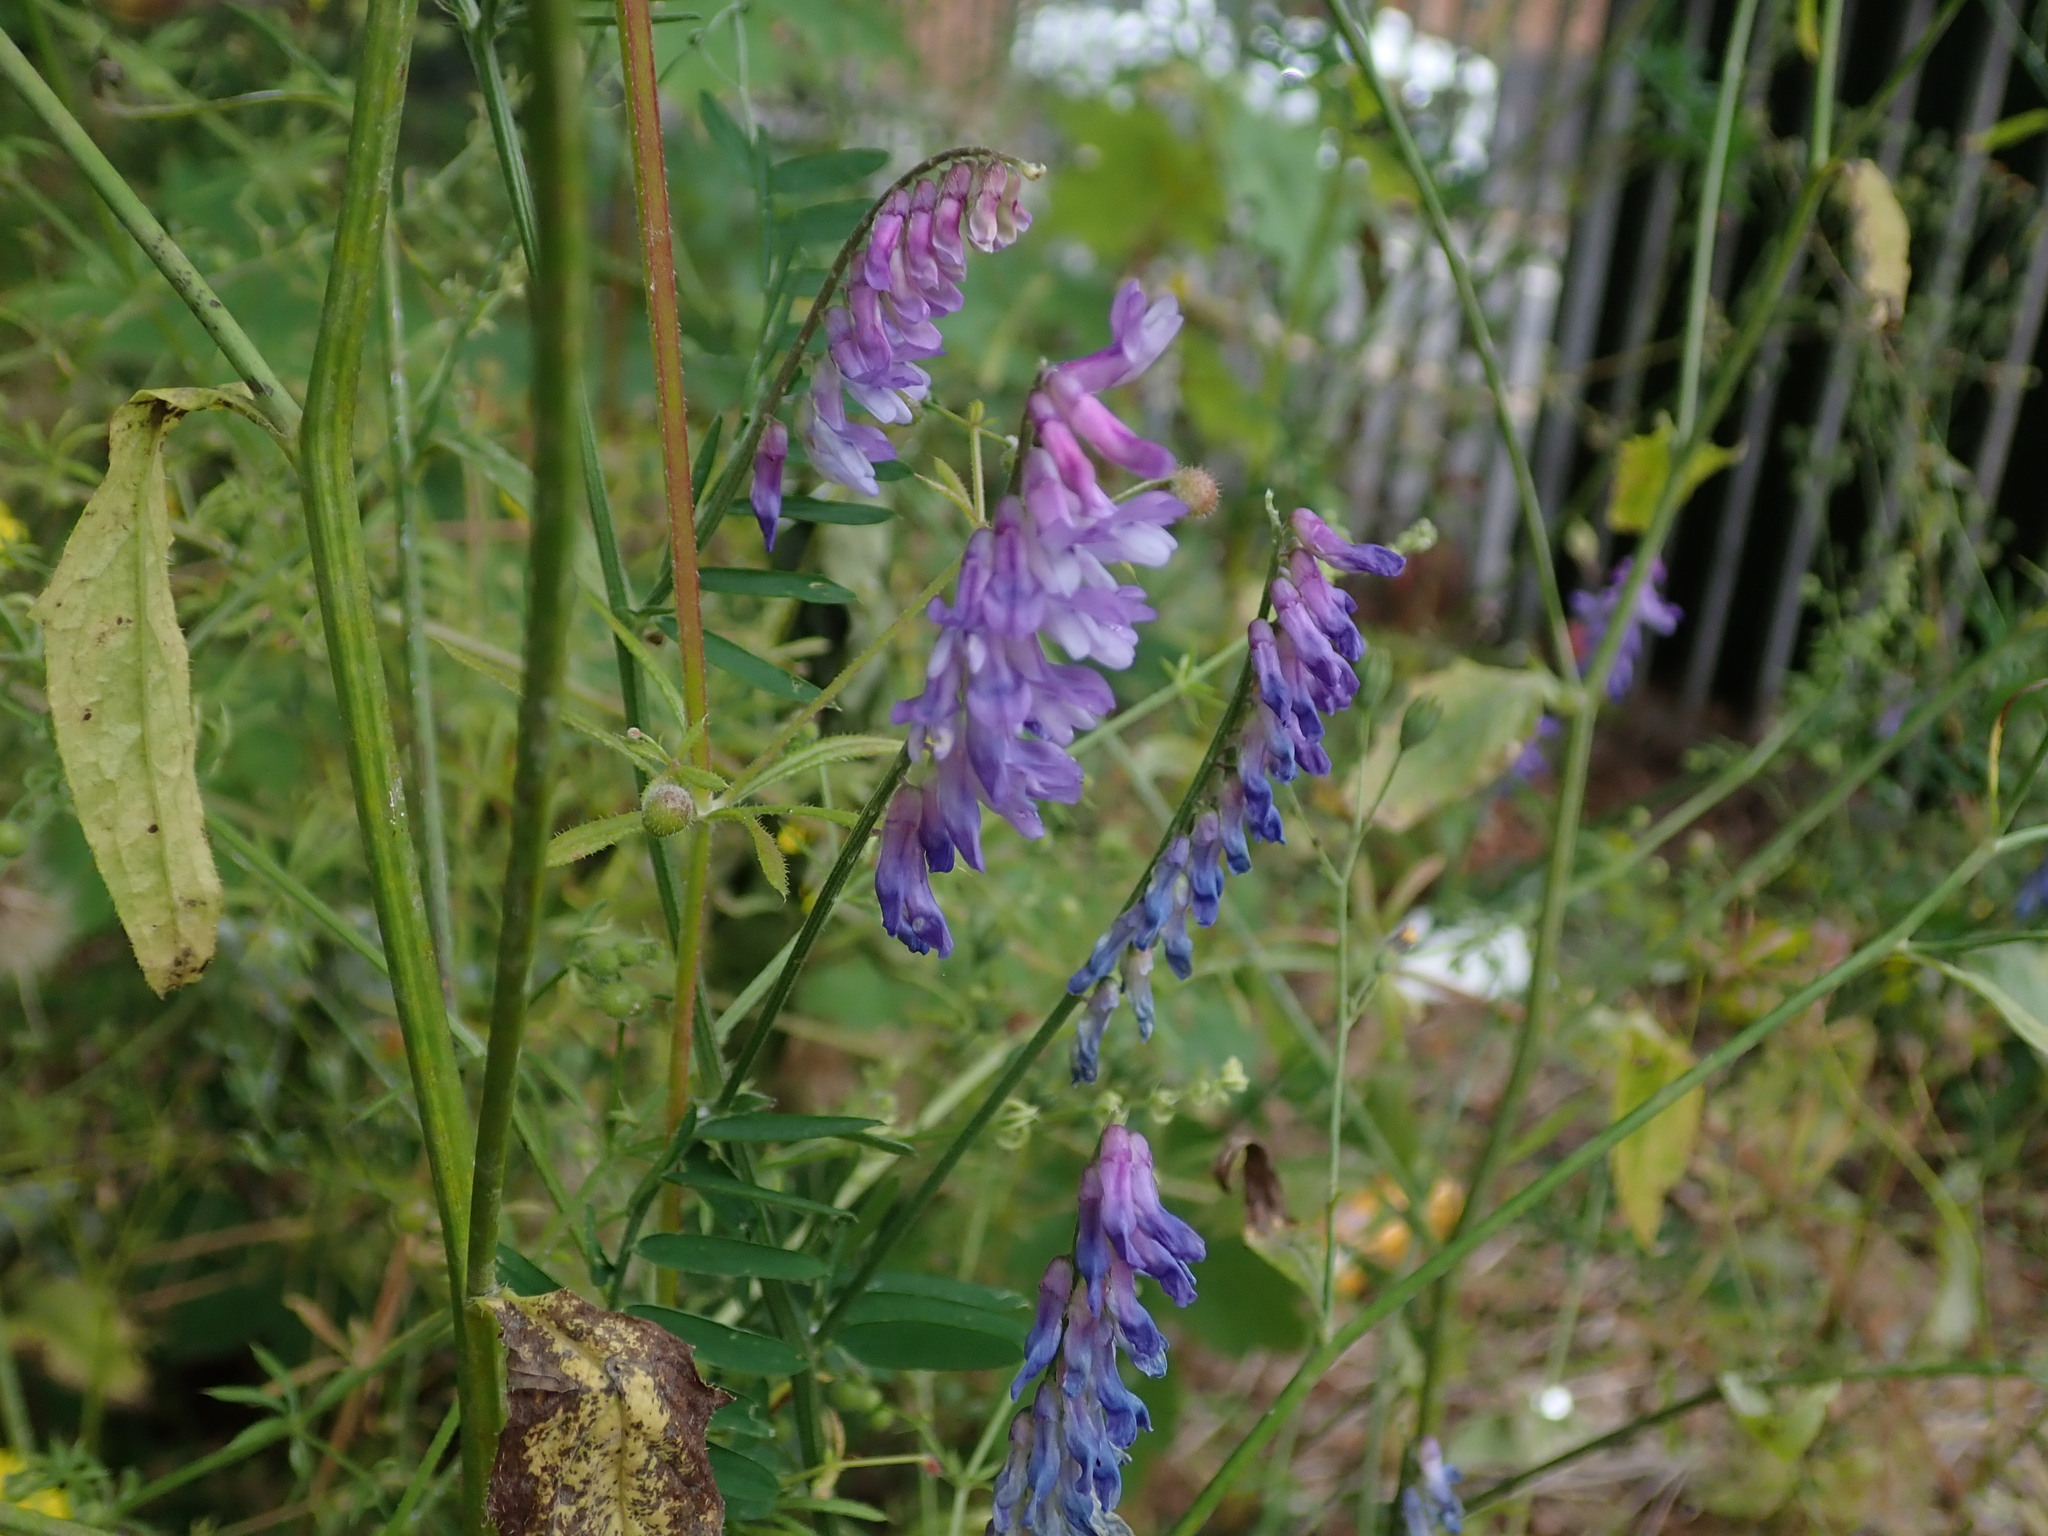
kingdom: Plantae
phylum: Tracheophyta
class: Magnoliopsida
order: Fabales
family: Fabaceae
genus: Vicia
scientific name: Vicia cracca
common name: Bird vetch
